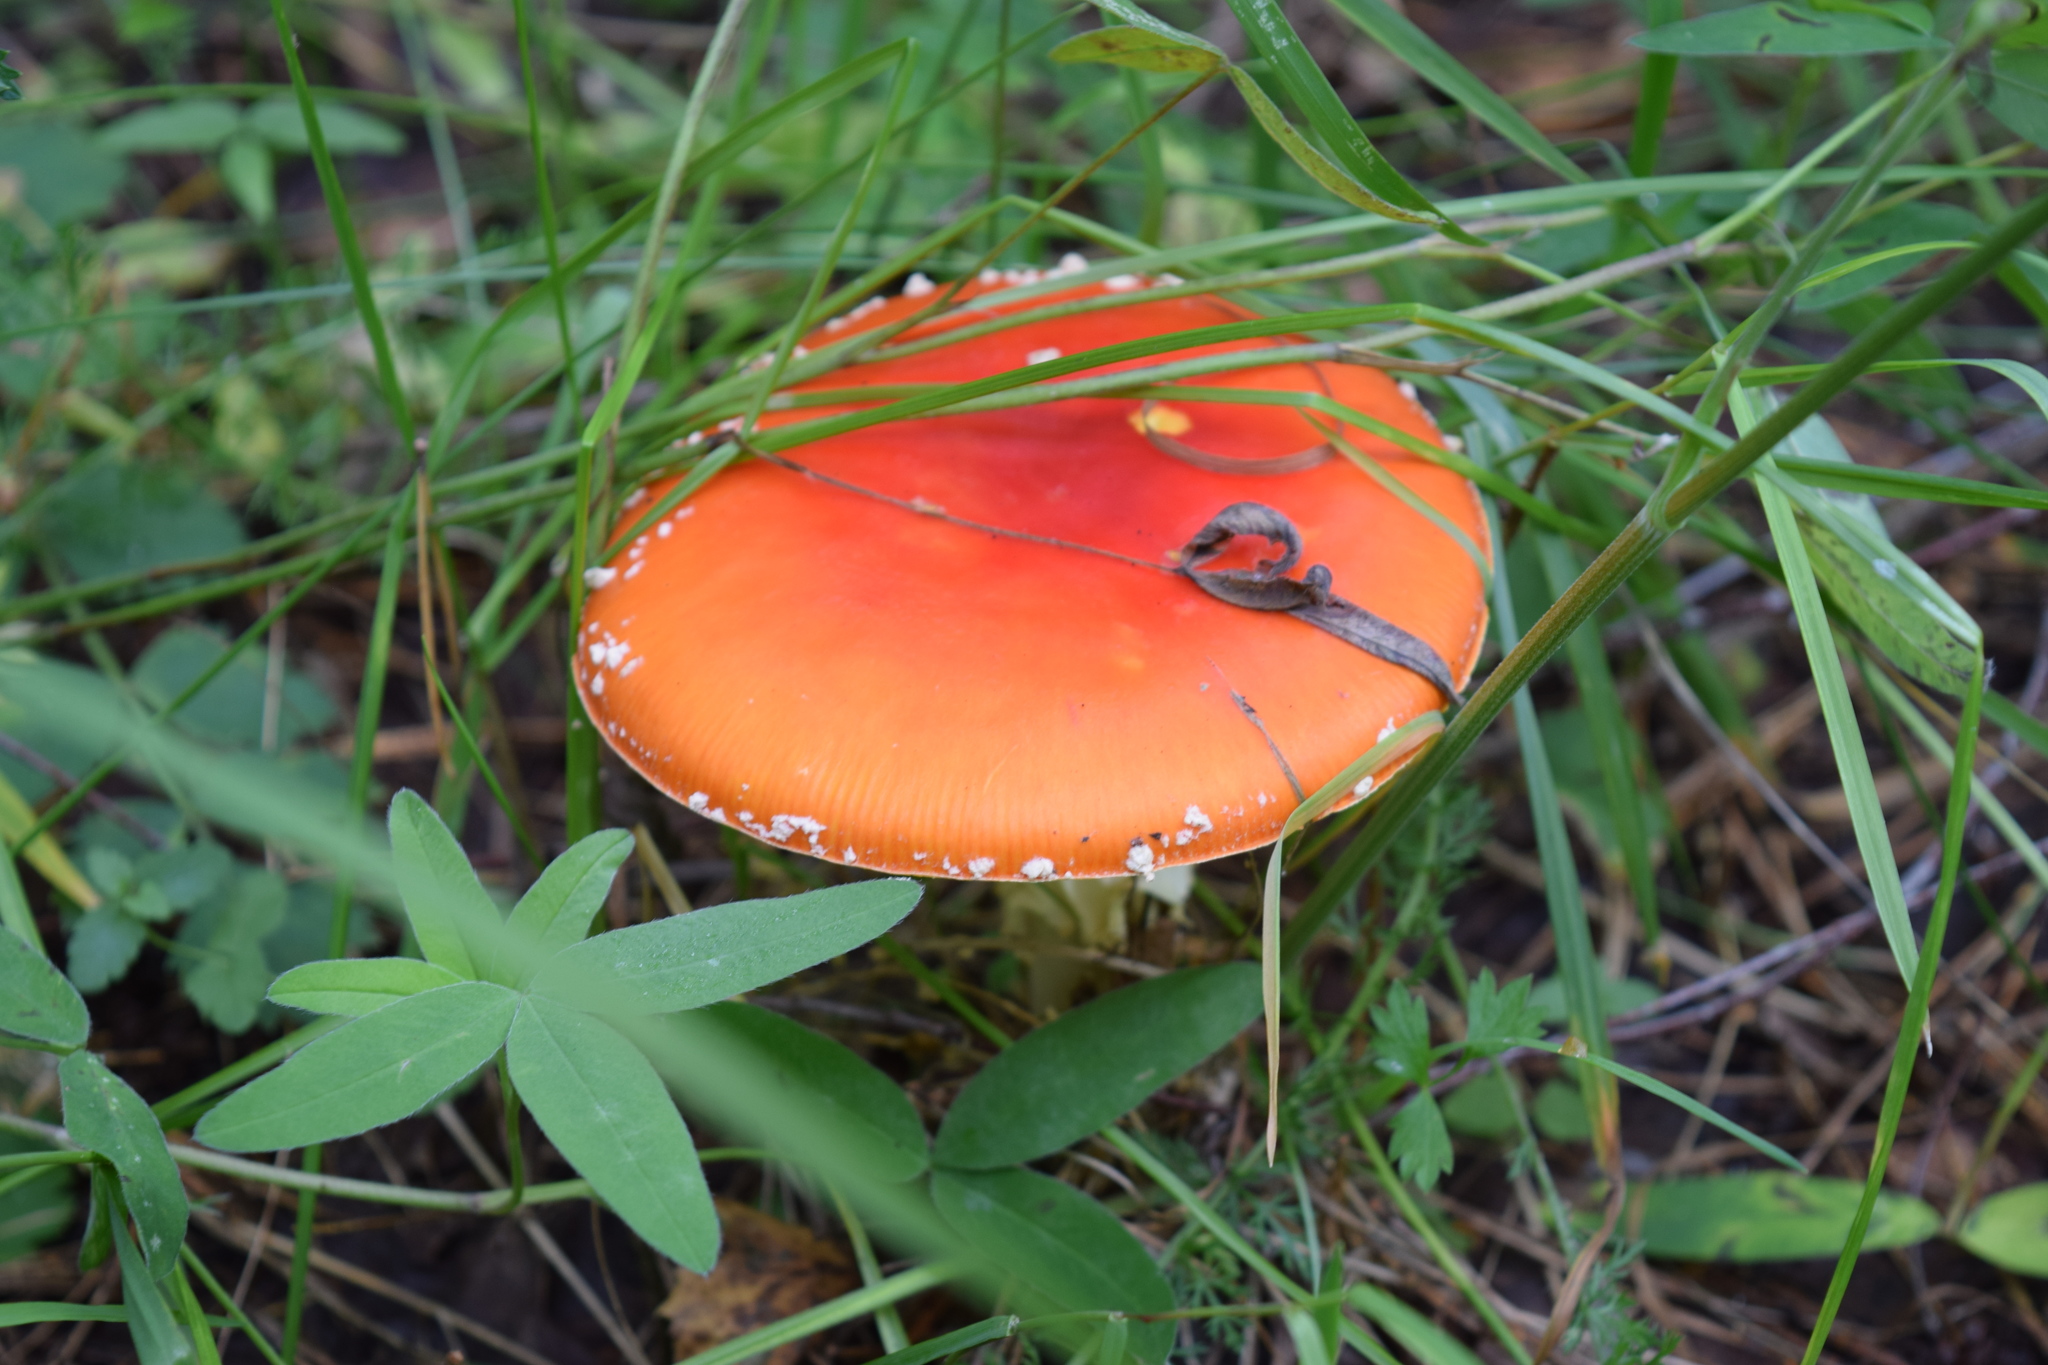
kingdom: Fungi
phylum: Basidiomycota
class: Agaricomycetes
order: Agaricales
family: Amanitaceae
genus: Amanita
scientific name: Amanita muscaria
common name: Fly agaric
